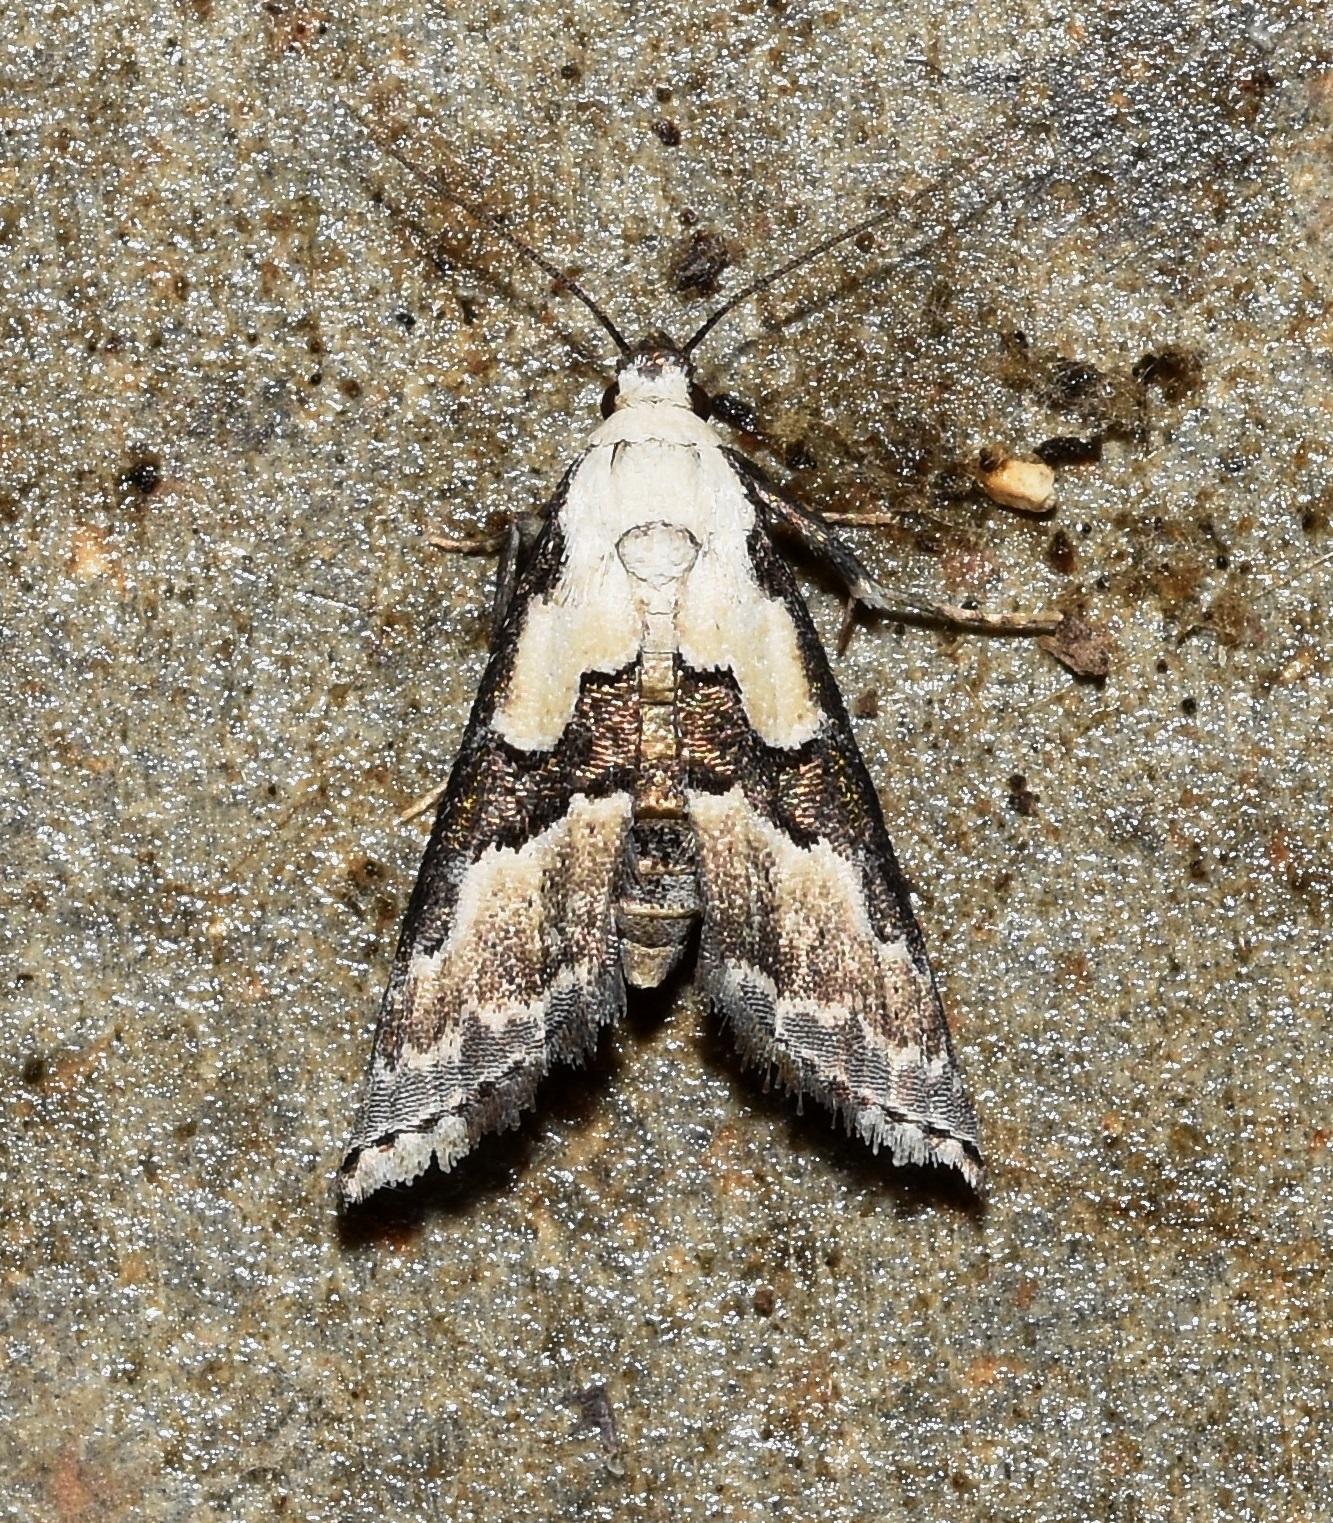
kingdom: Animalia
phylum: Arthropoda
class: Insecta
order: Lepidoptera
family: Noctuidae
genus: Nigetia
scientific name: Nigetia formosalis
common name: Thin-winged owlet
